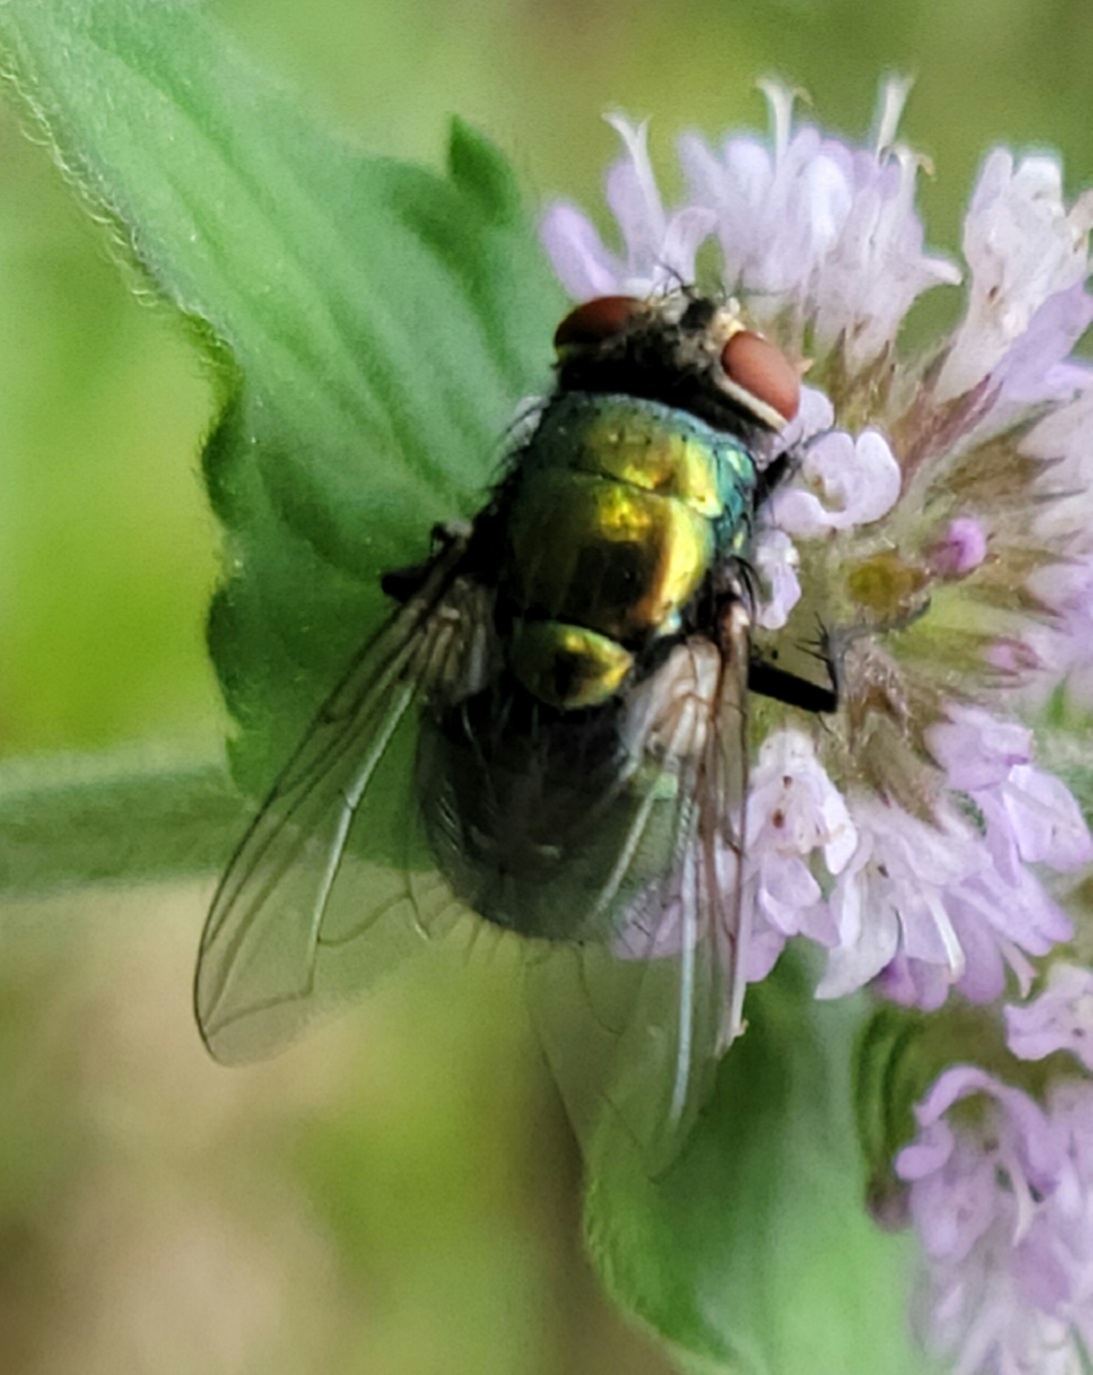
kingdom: Animalia
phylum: Arthropoda
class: Insecta
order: Diptera
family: Calliphoridae
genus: Lucilia
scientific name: Lucilia sericata
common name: Blow fly
